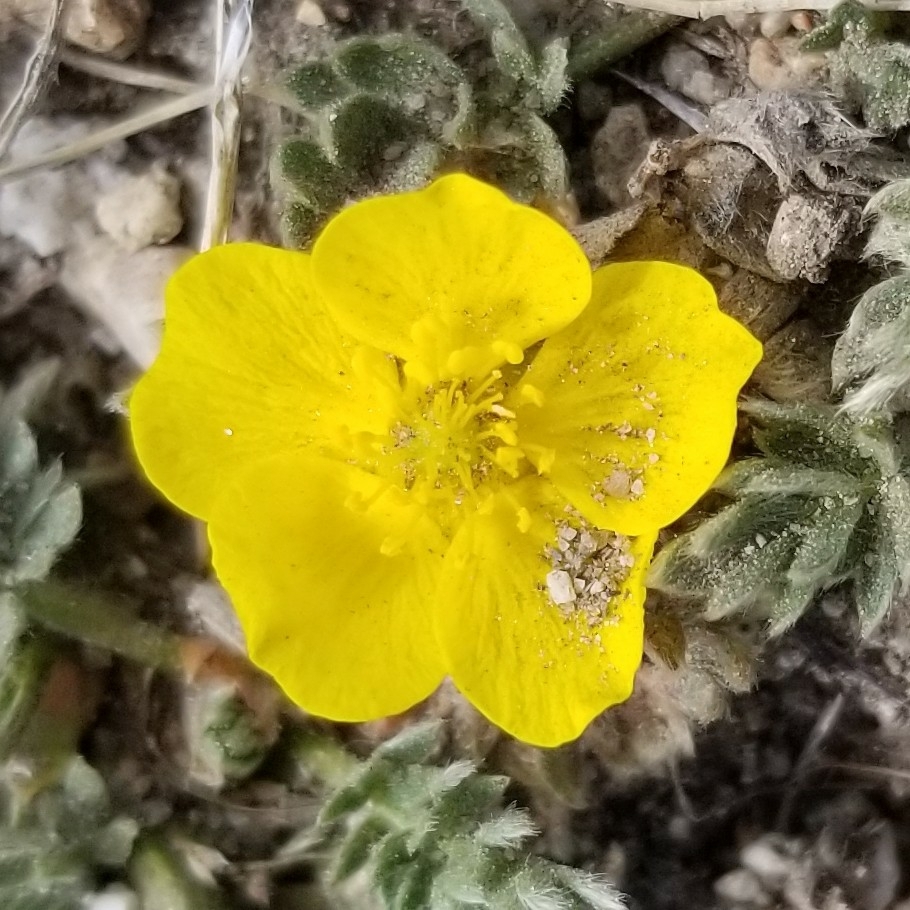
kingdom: Plantae
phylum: Tracheophyta
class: Magnoliopsida
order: Rosales
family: Rosaceae
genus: Potentilla
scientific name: Potentilla breweri
